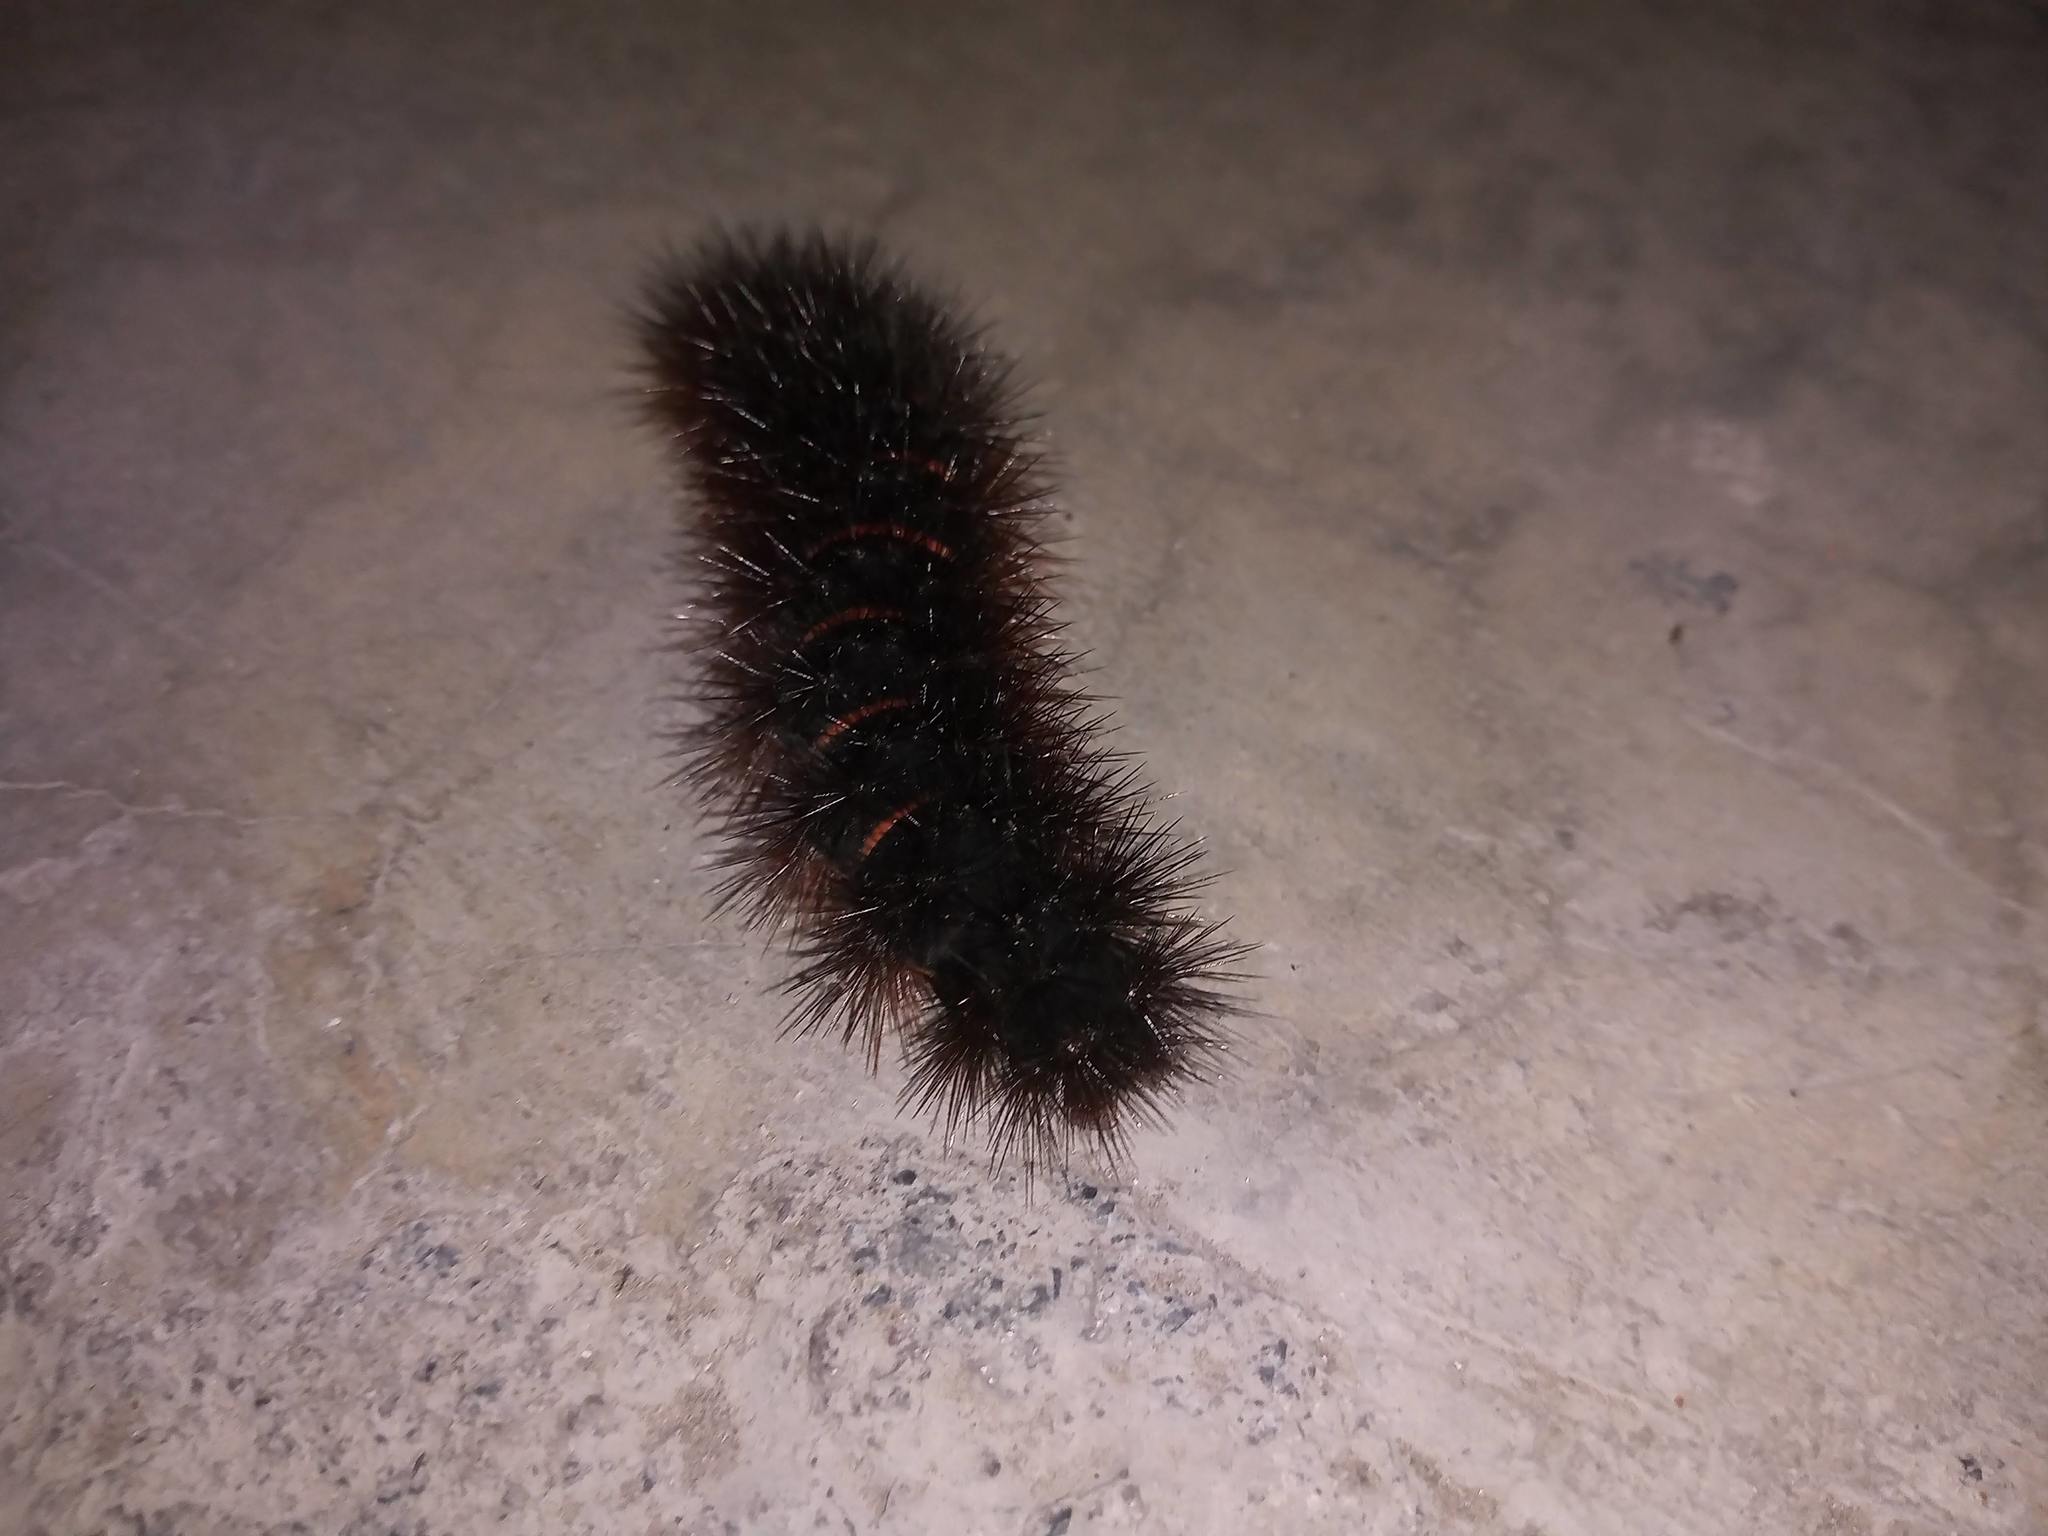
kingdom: Animalia
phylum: Arthropoda
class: Insecta
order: Lepidoptera
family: Erebidae
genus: Hypercompe
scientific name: Hypercompe scribonia
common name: Giant leopard moth
